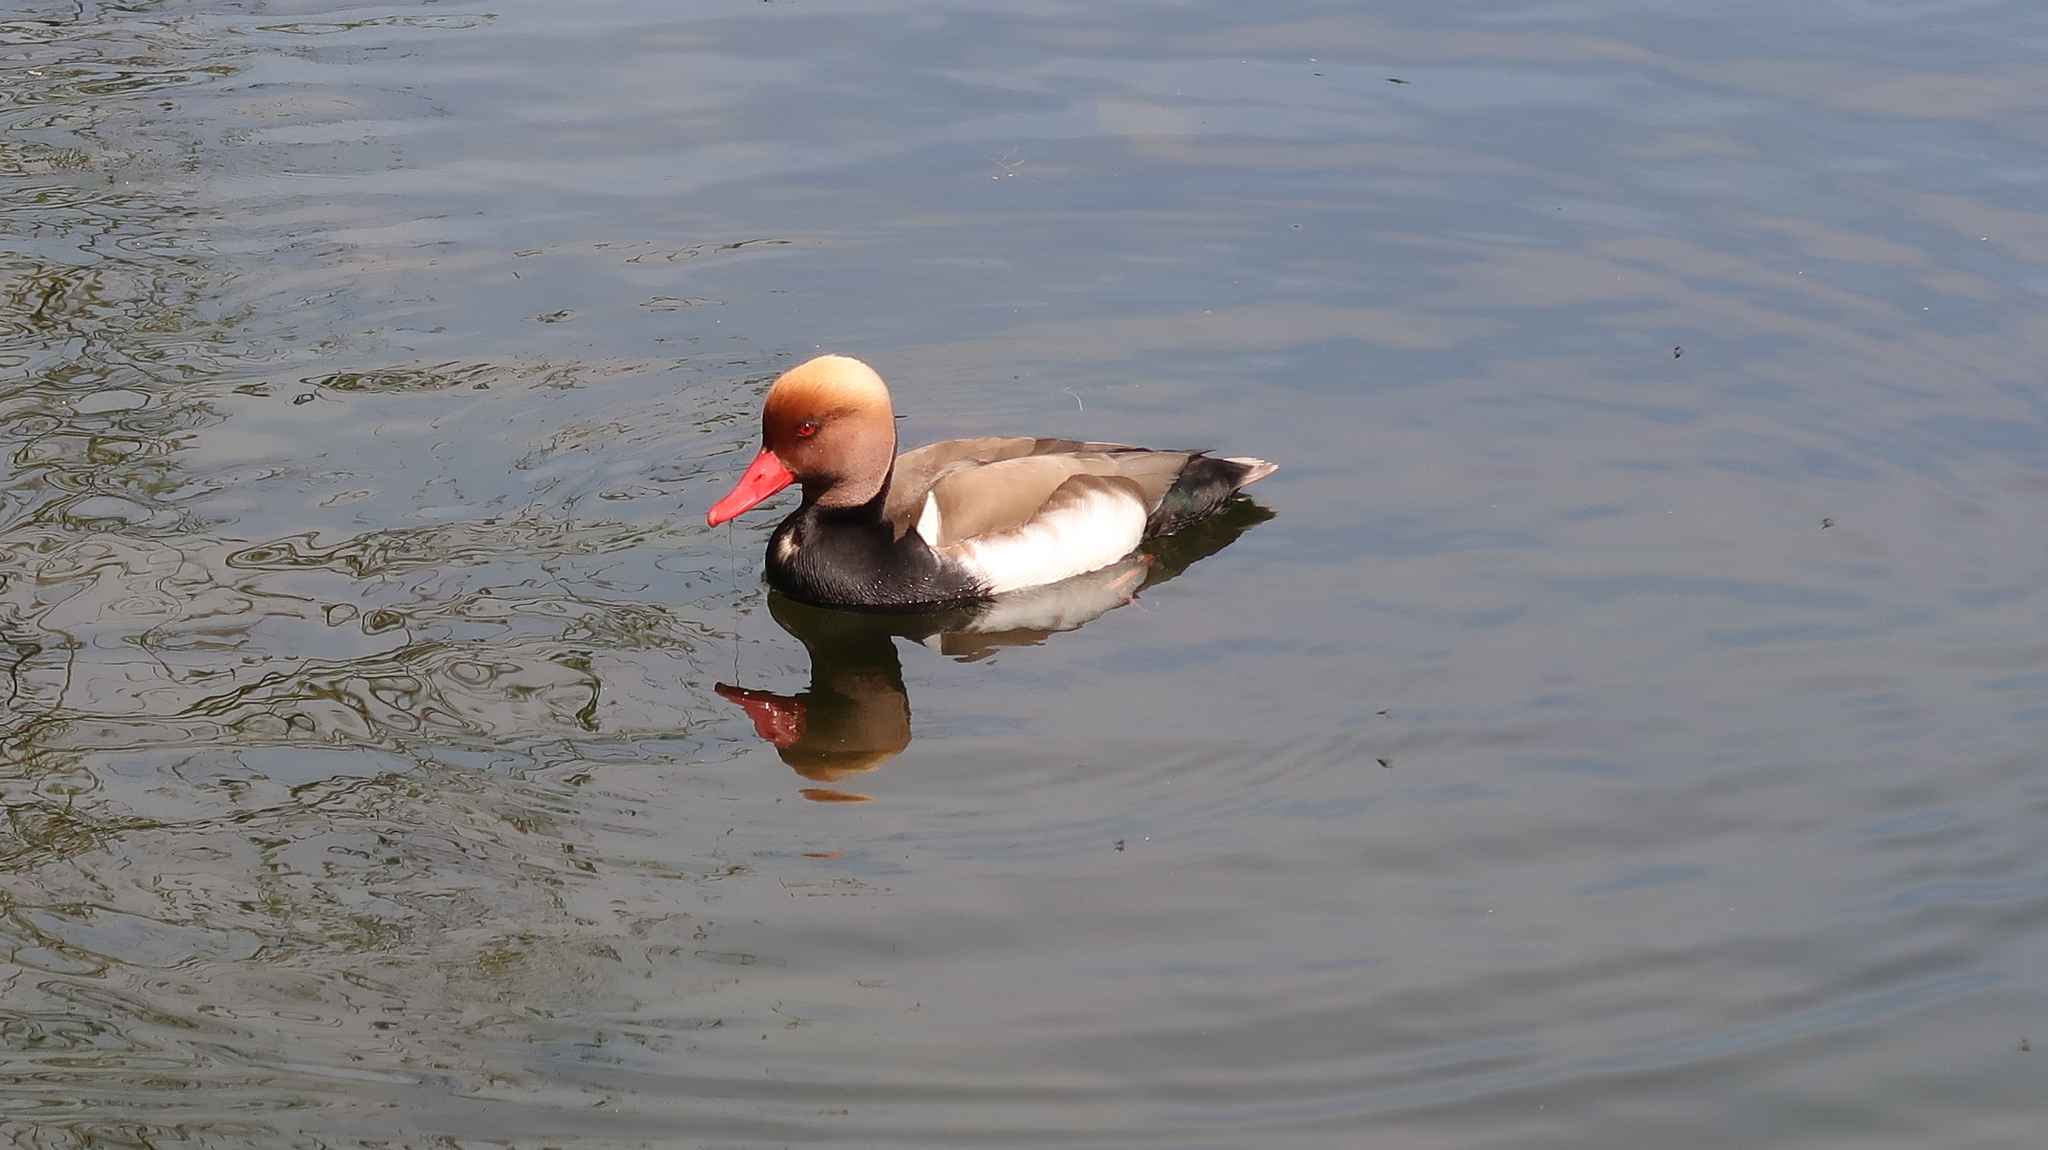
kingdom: Animalia
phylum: Chordata
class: Aves
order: Anseriformes
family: Anatidae
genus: Netta
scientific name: Netta rufina
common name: Red-crested pochard
